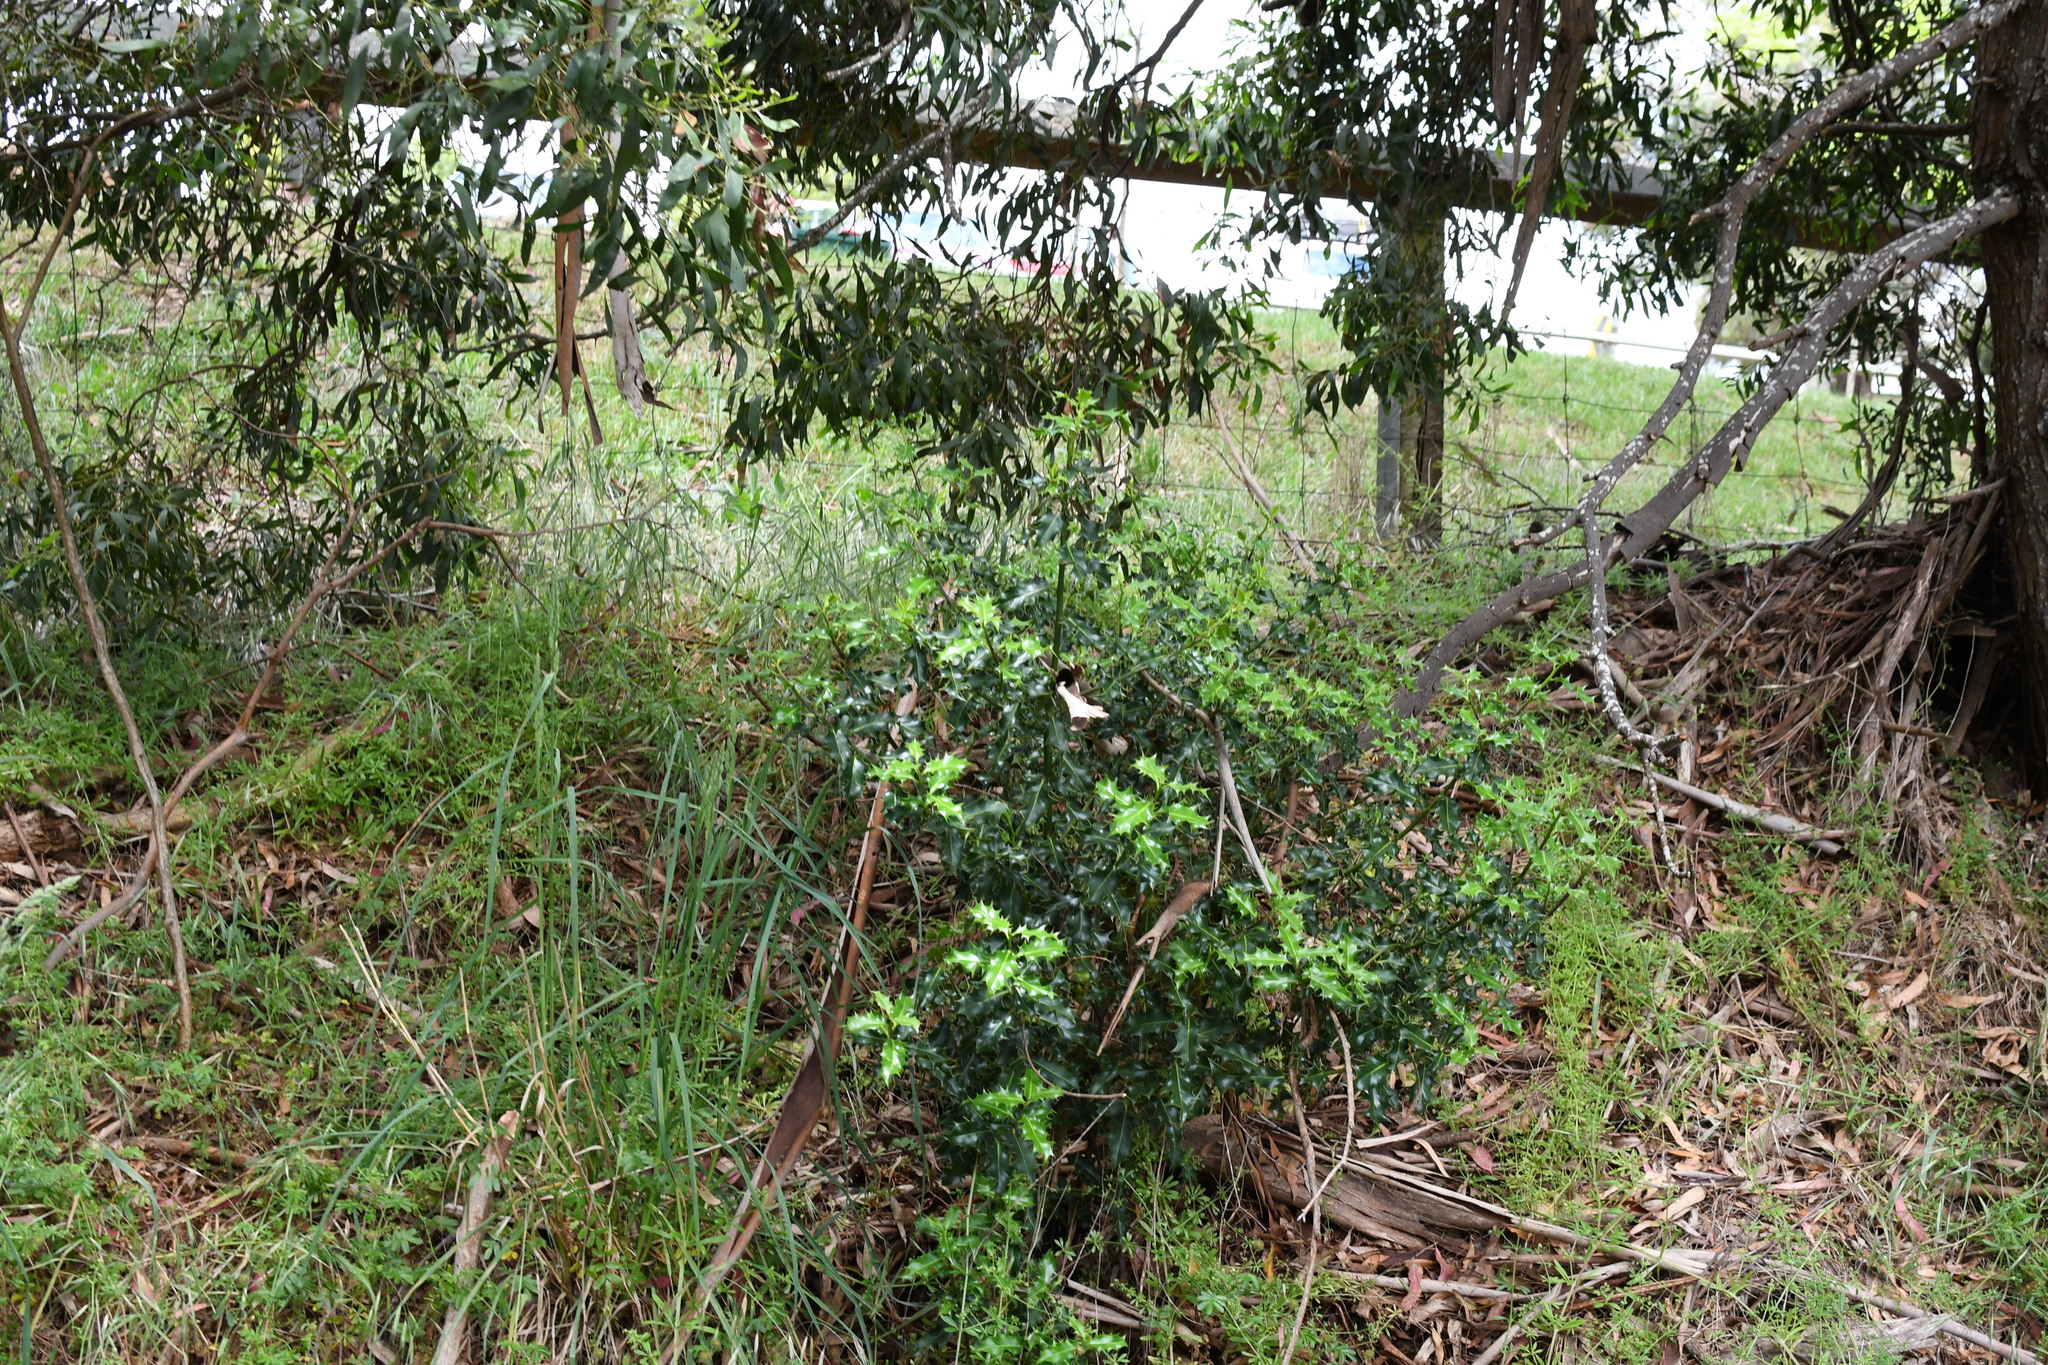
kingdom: Plantae
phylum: Tracheophyta
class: Magnoliopsida
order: Aquifoliales
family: Aquifoliaceae
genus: Ilex
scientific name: Ilex aquifolium
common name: English holly
